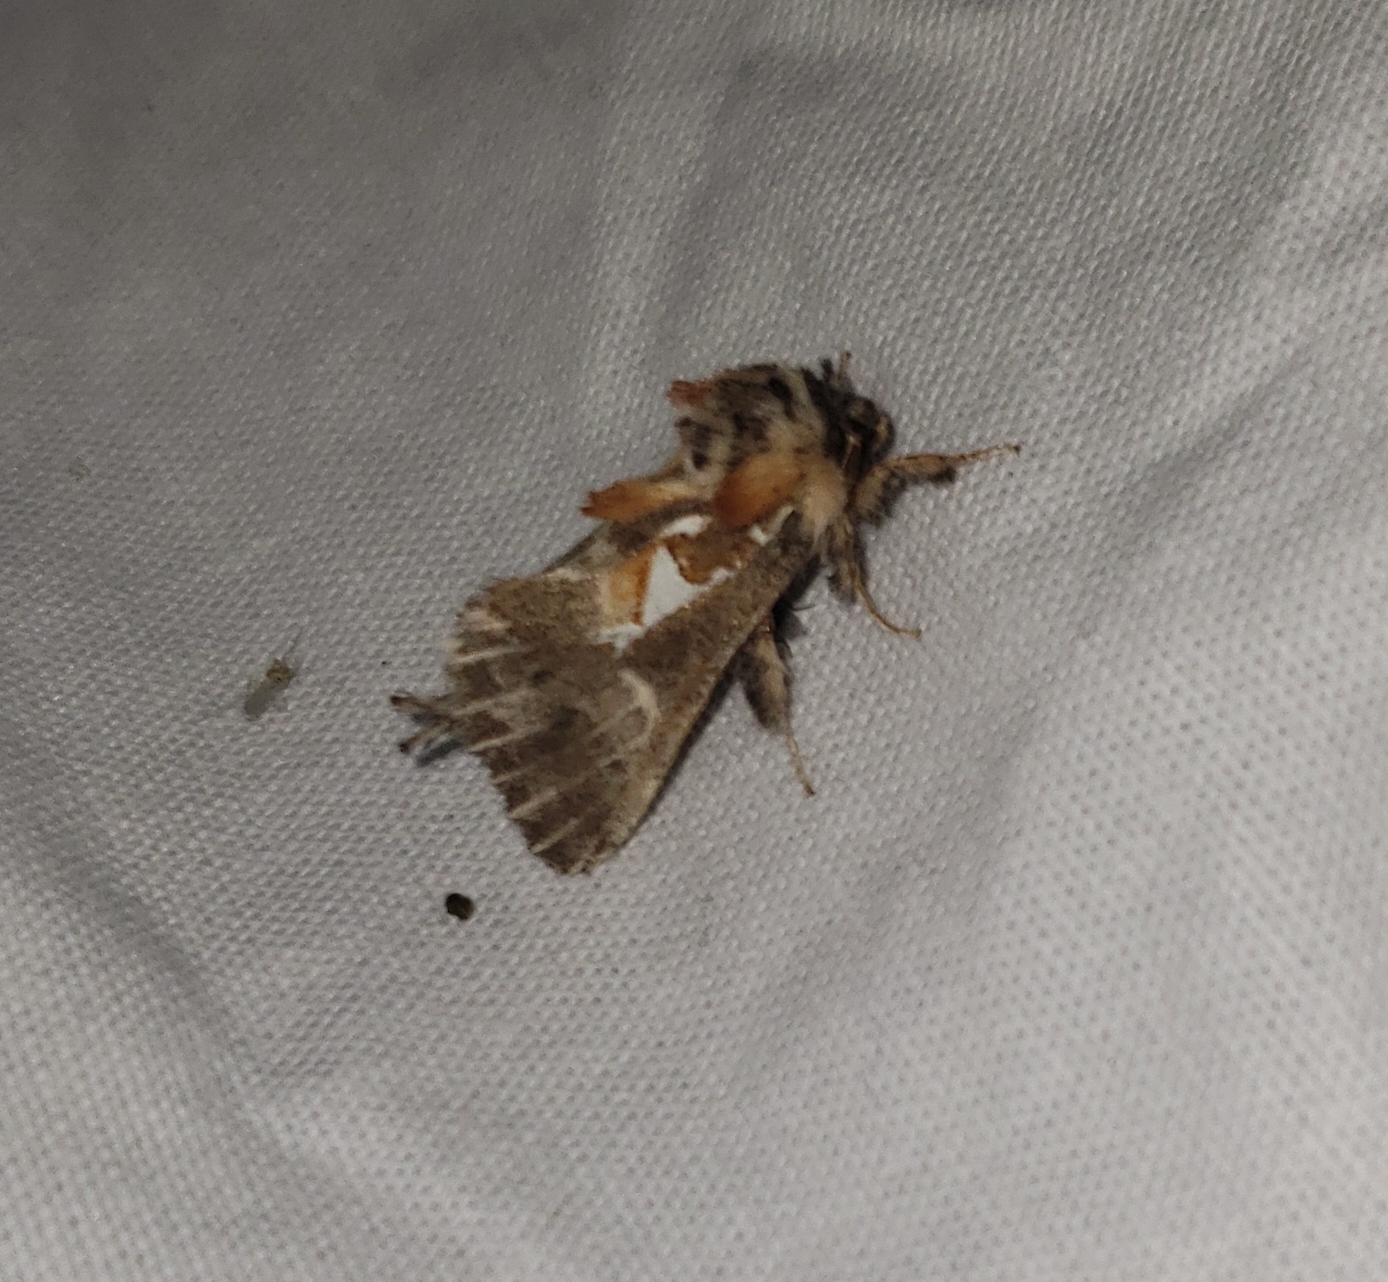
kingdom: Animalia
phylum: Arthropoda
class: Insecta
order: Lepidoptera
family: Notodontidae
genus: Spatalia
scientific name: Spatalia argentina
